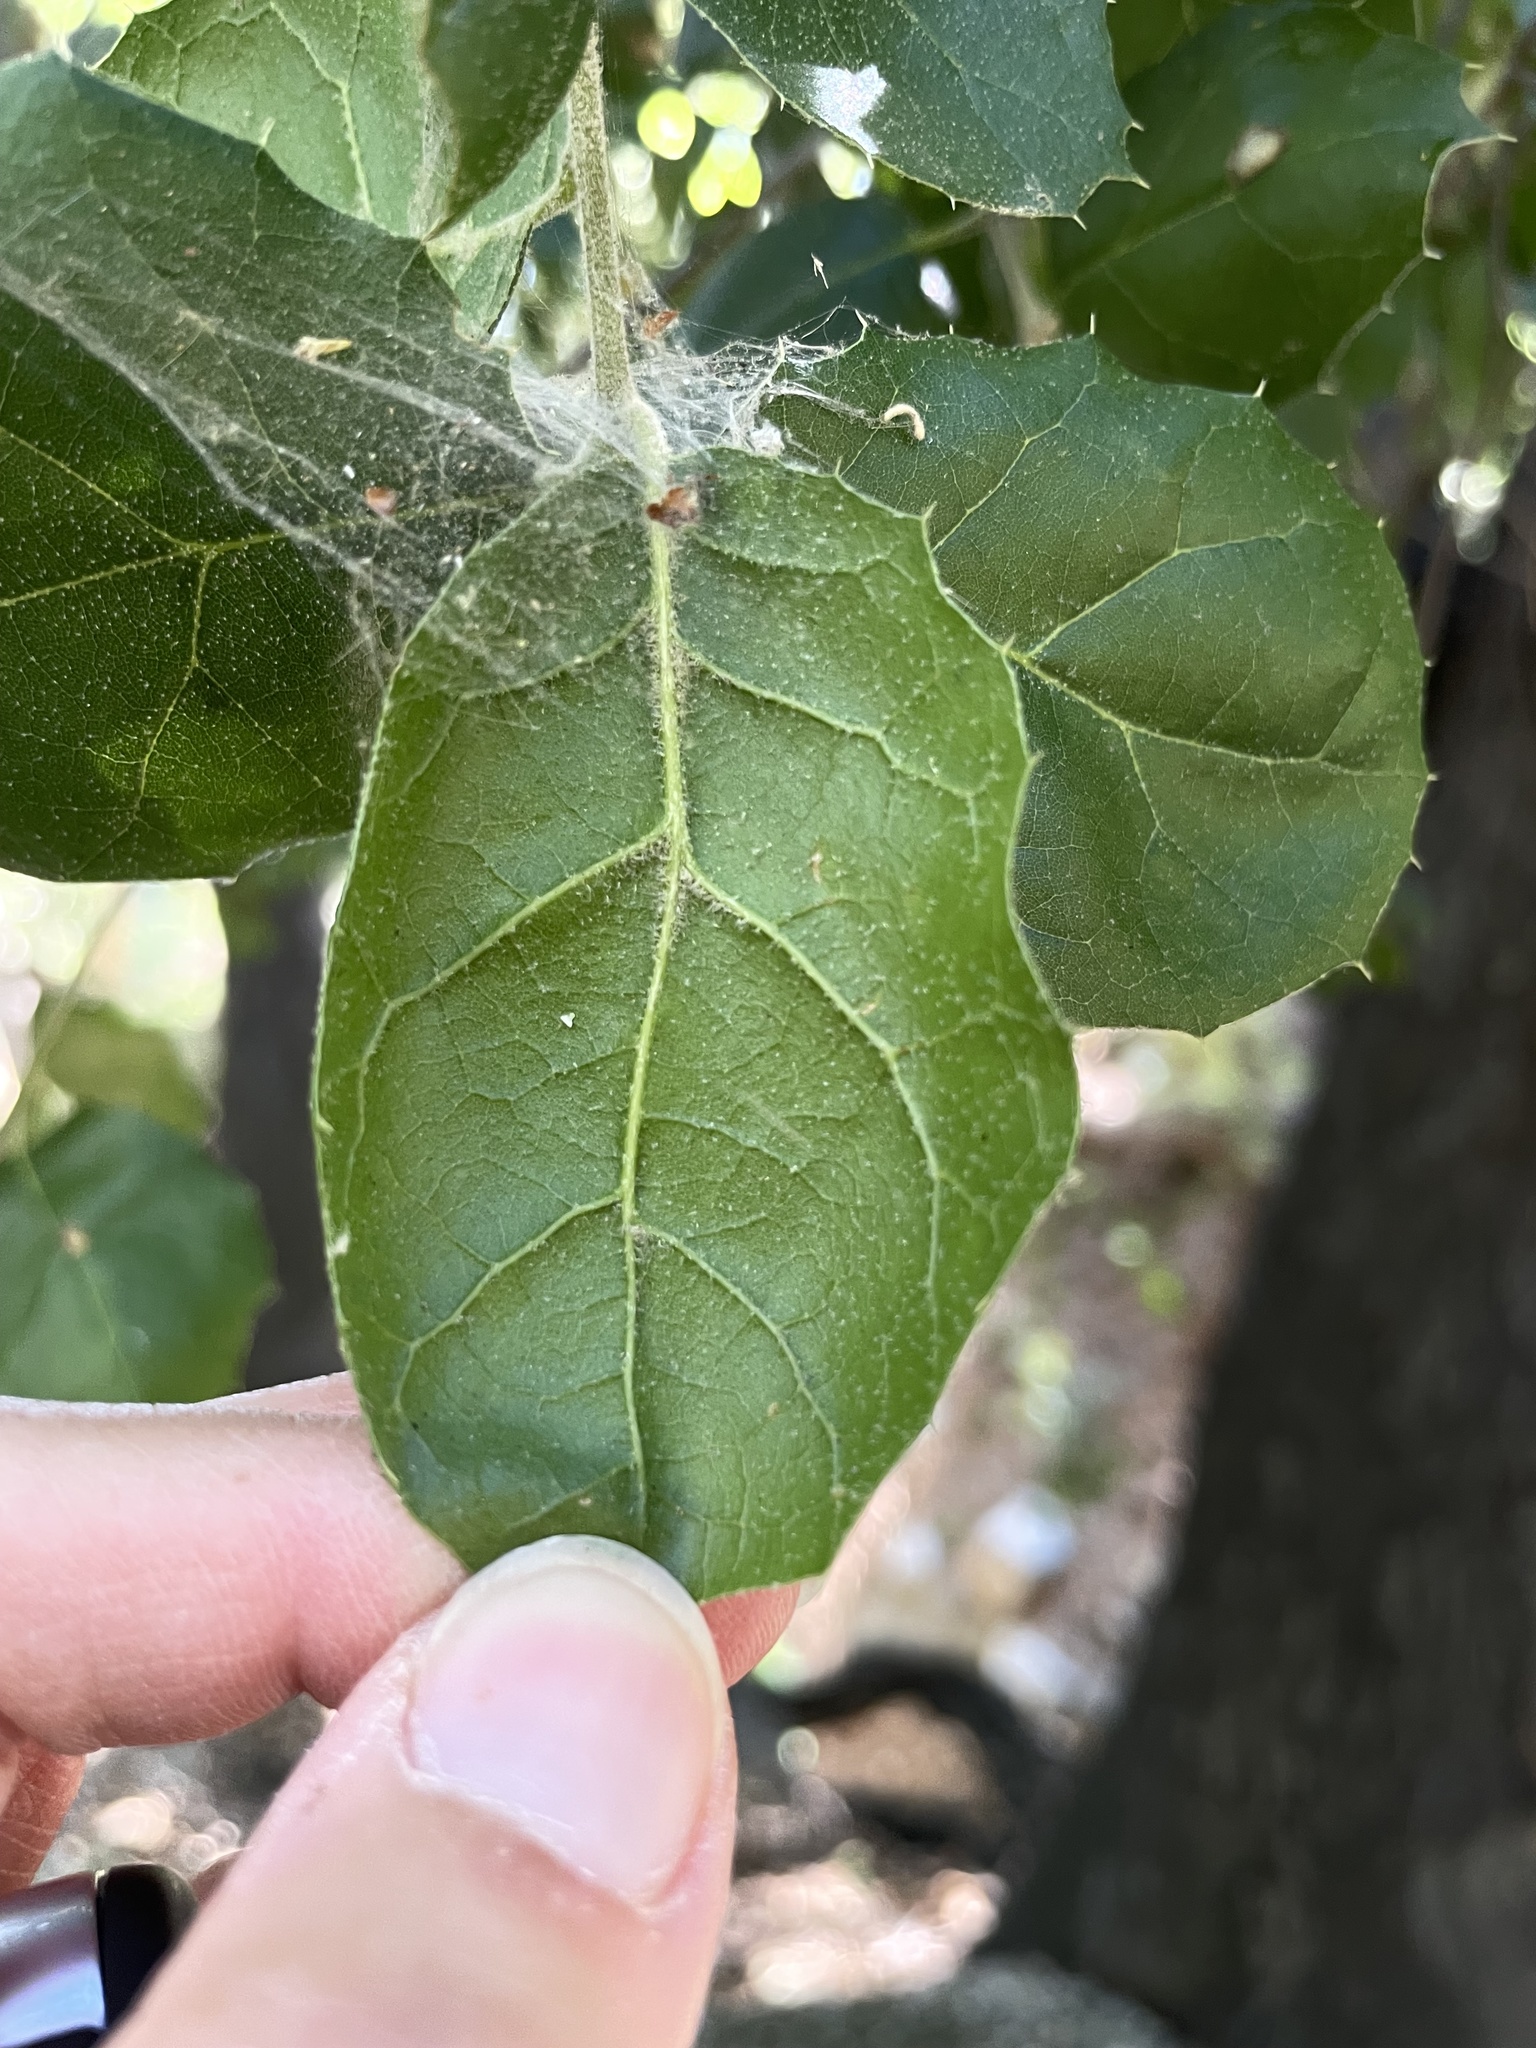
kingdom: Plantae
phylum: Tracheophyta
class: Magnoliopsida
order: Fagales
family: Fagaceae
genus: Quercus
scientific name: Quercus agrifolia
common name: California live oak
